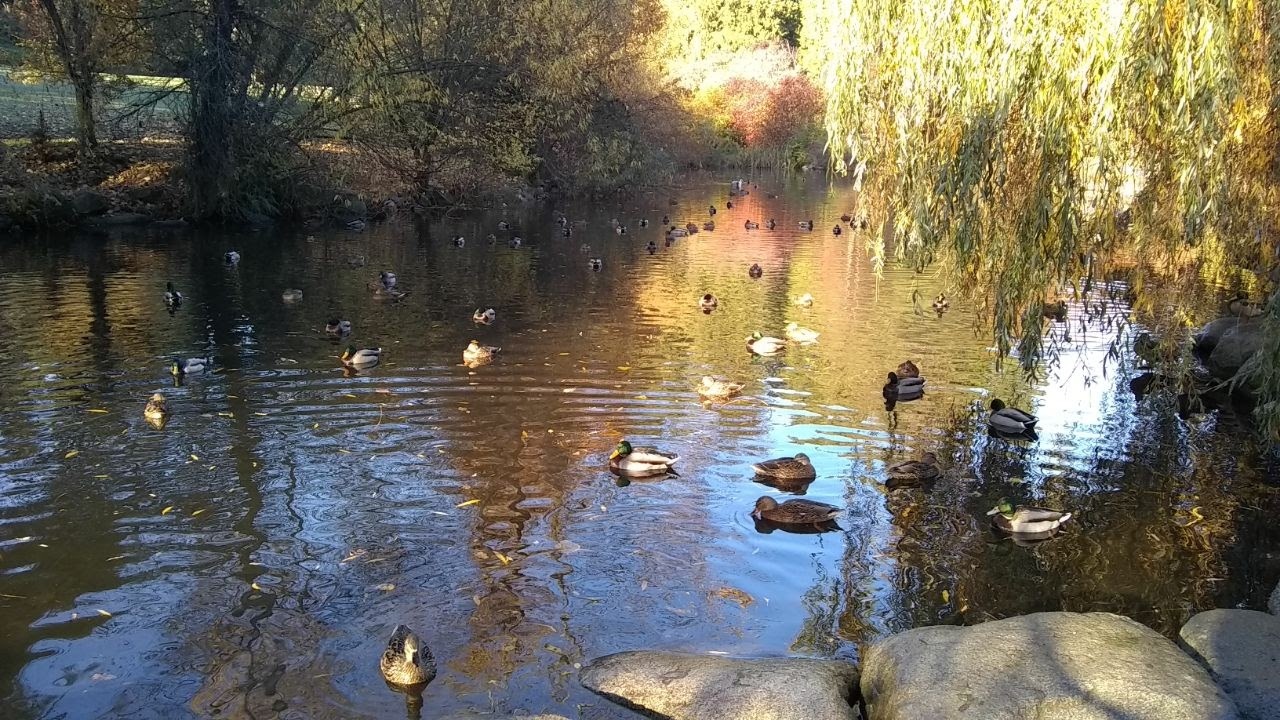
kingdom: Animalia
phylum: Chordata
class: Aves
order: Anseriformes
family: Anatidae
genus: Anas
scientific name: Anas platyrhynchos
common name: Mallard
